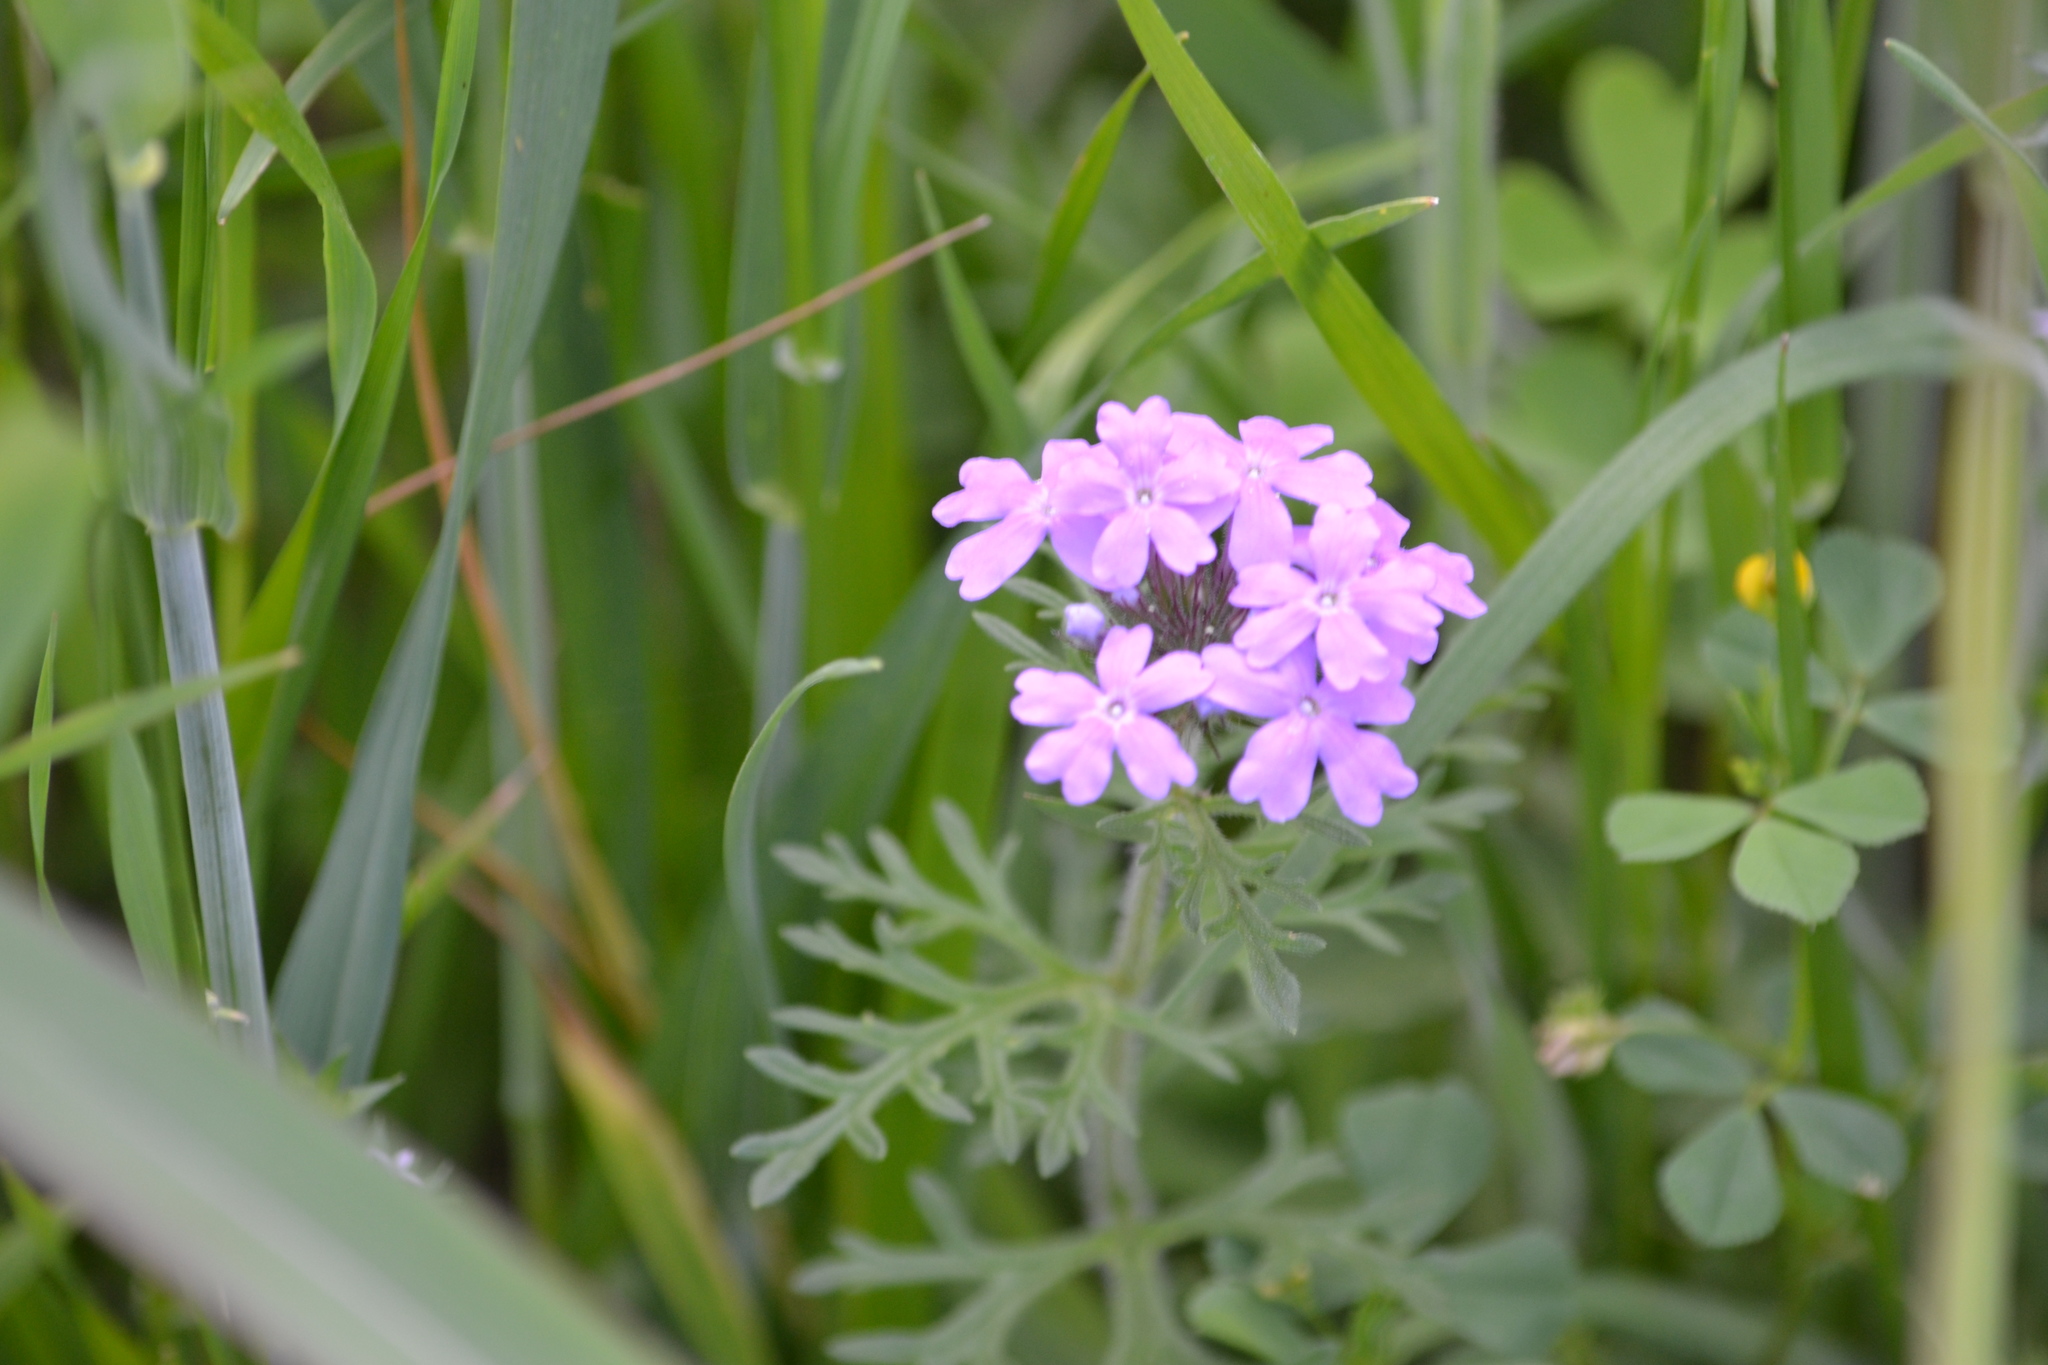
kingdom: Plantae
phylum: Tracheophyta
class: Magnoliopsida
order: Lamiales
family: Verbenaceae
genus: Verbena
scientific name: Verbena bipinnatifida
